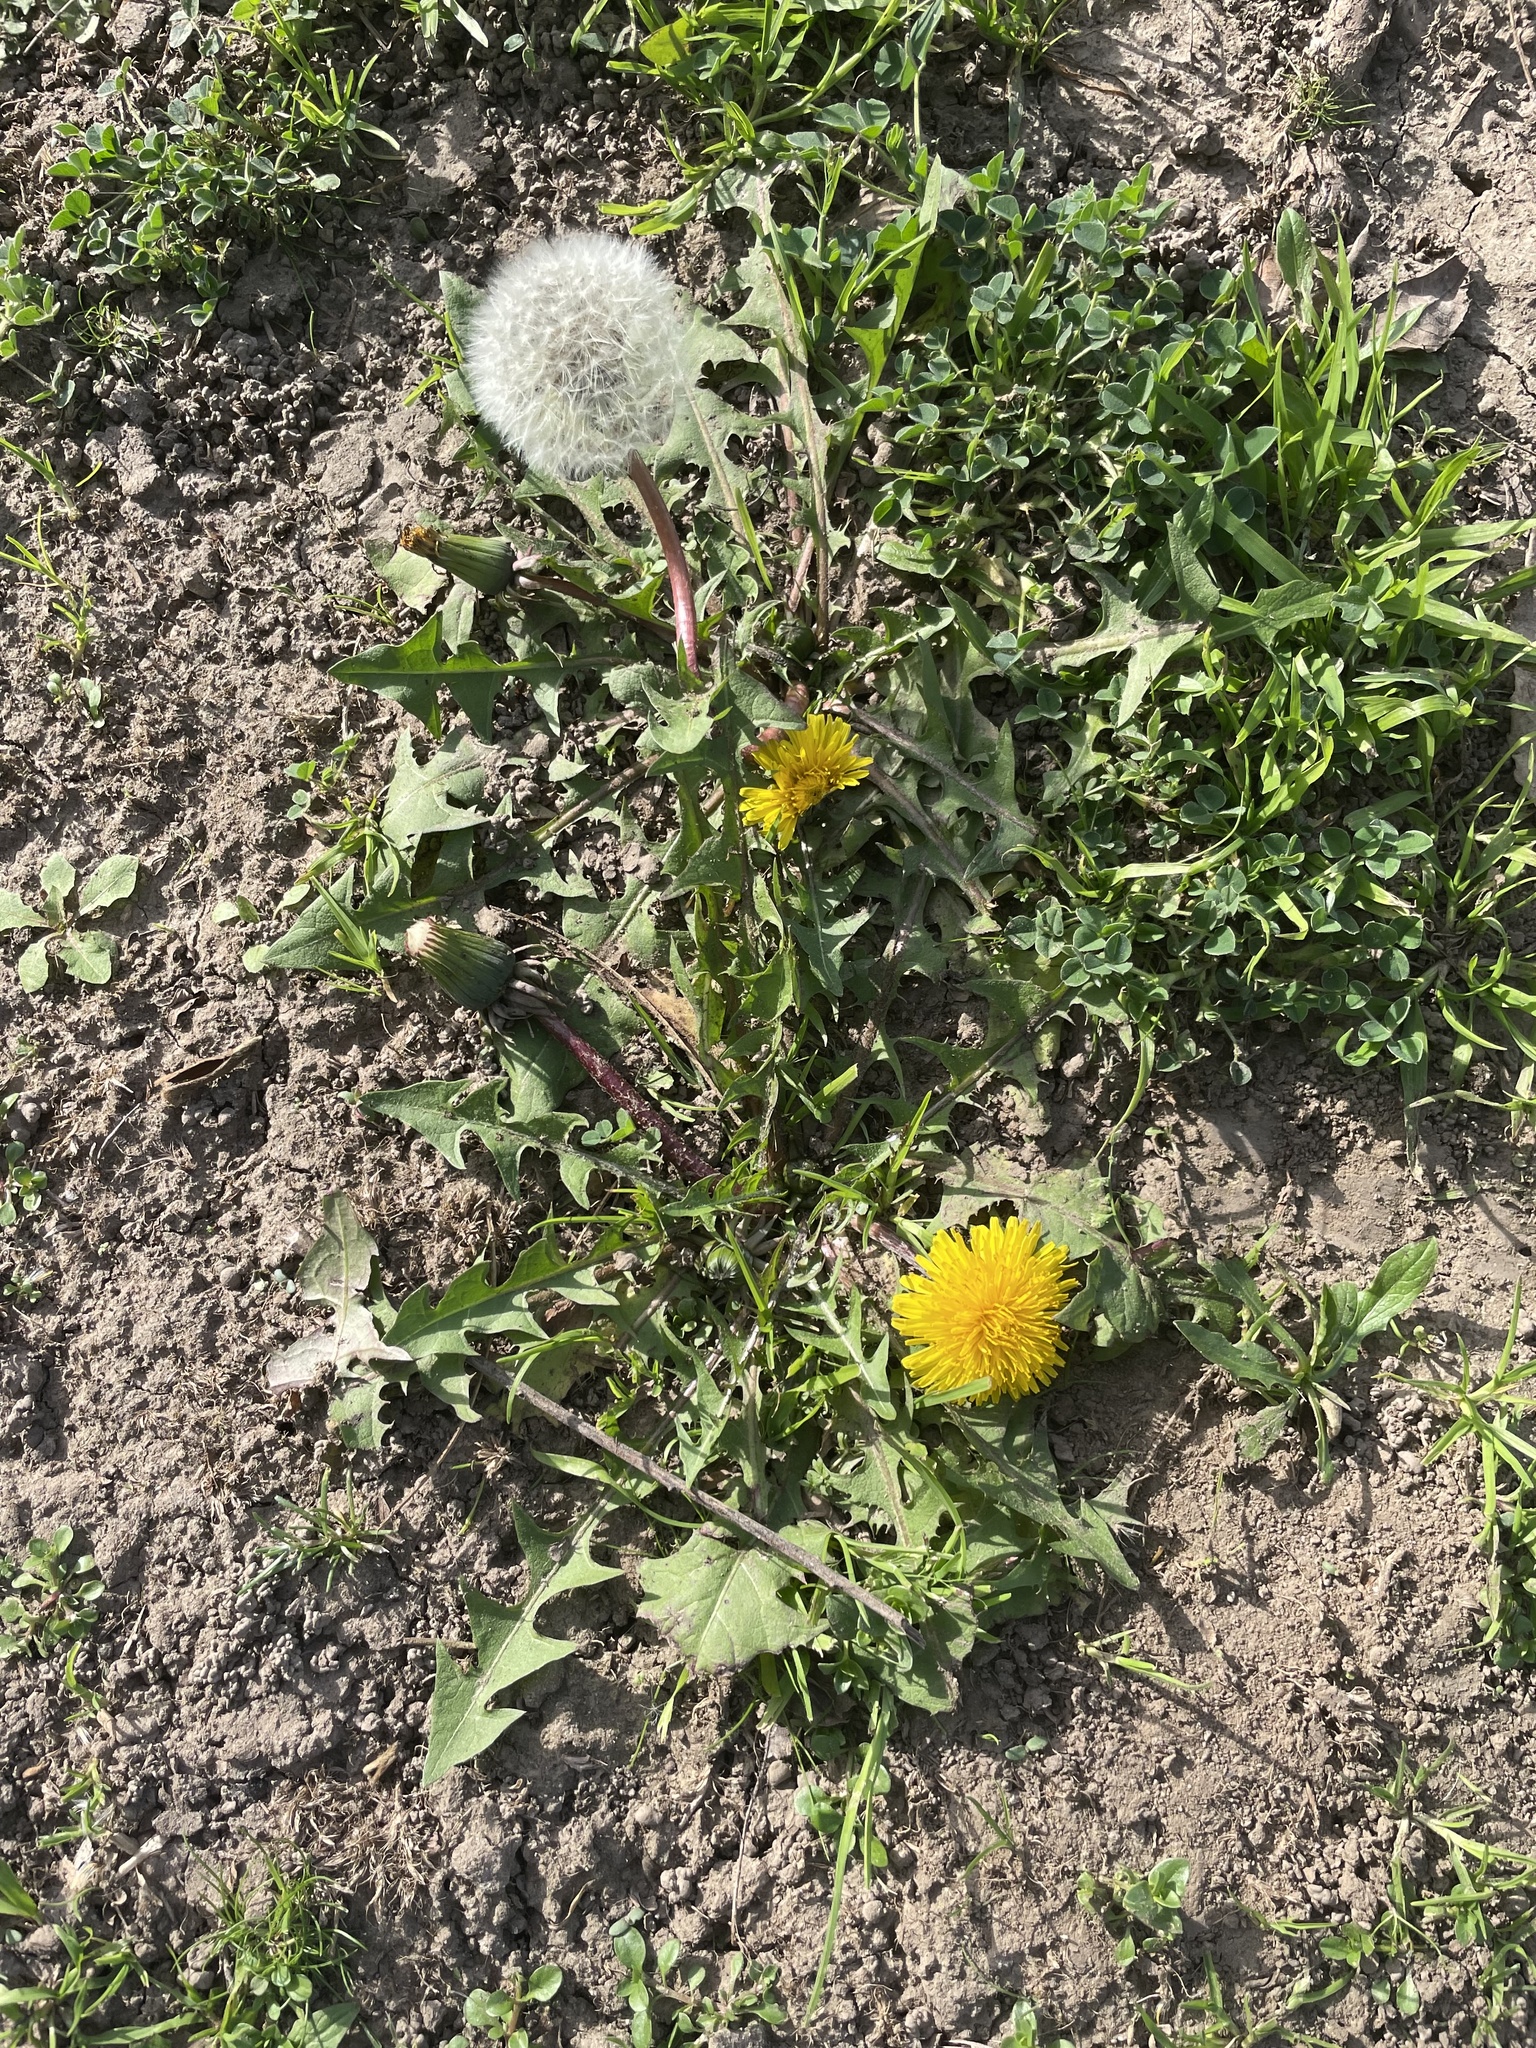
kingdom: Plantae
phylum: Tracheophyta
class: Magnoliopsida
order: Asterales
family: Asteraceae
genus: Taraxacum
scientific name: Taraxacum officinale
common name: Common dandelion
